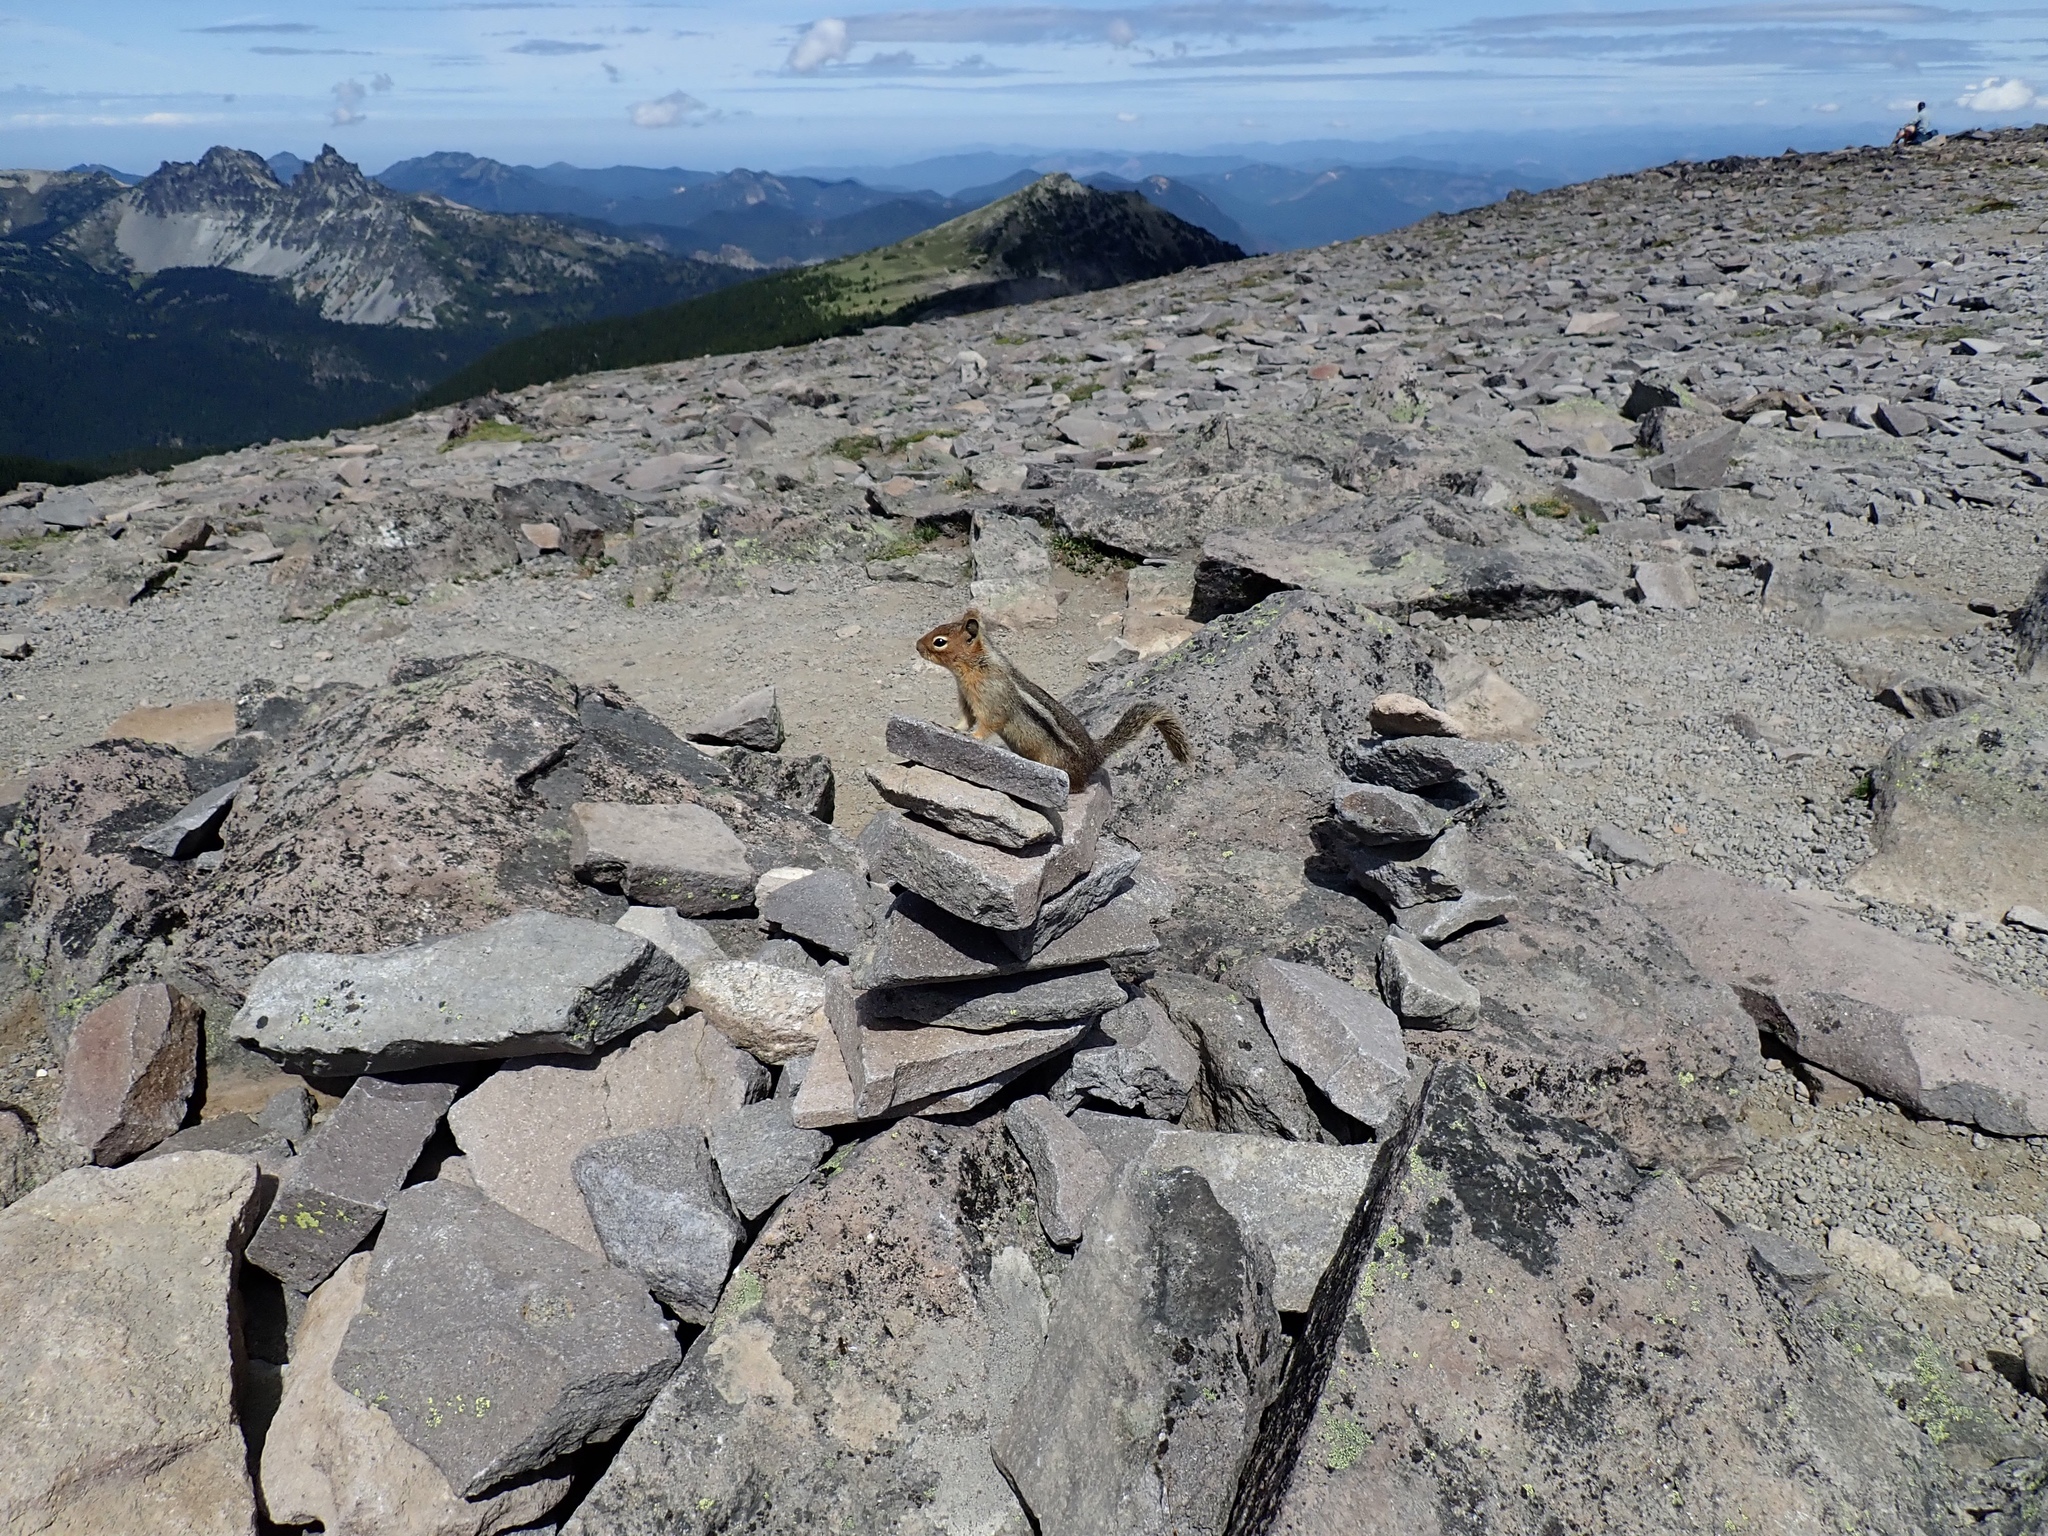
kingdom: Animalia
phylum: Chordata
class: Mammalia
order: Rodentia
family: Sciuridae
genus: Callospermophilus
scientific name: Callospermophilus saturatus
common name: Cascade golden-mantled ground squirrel
